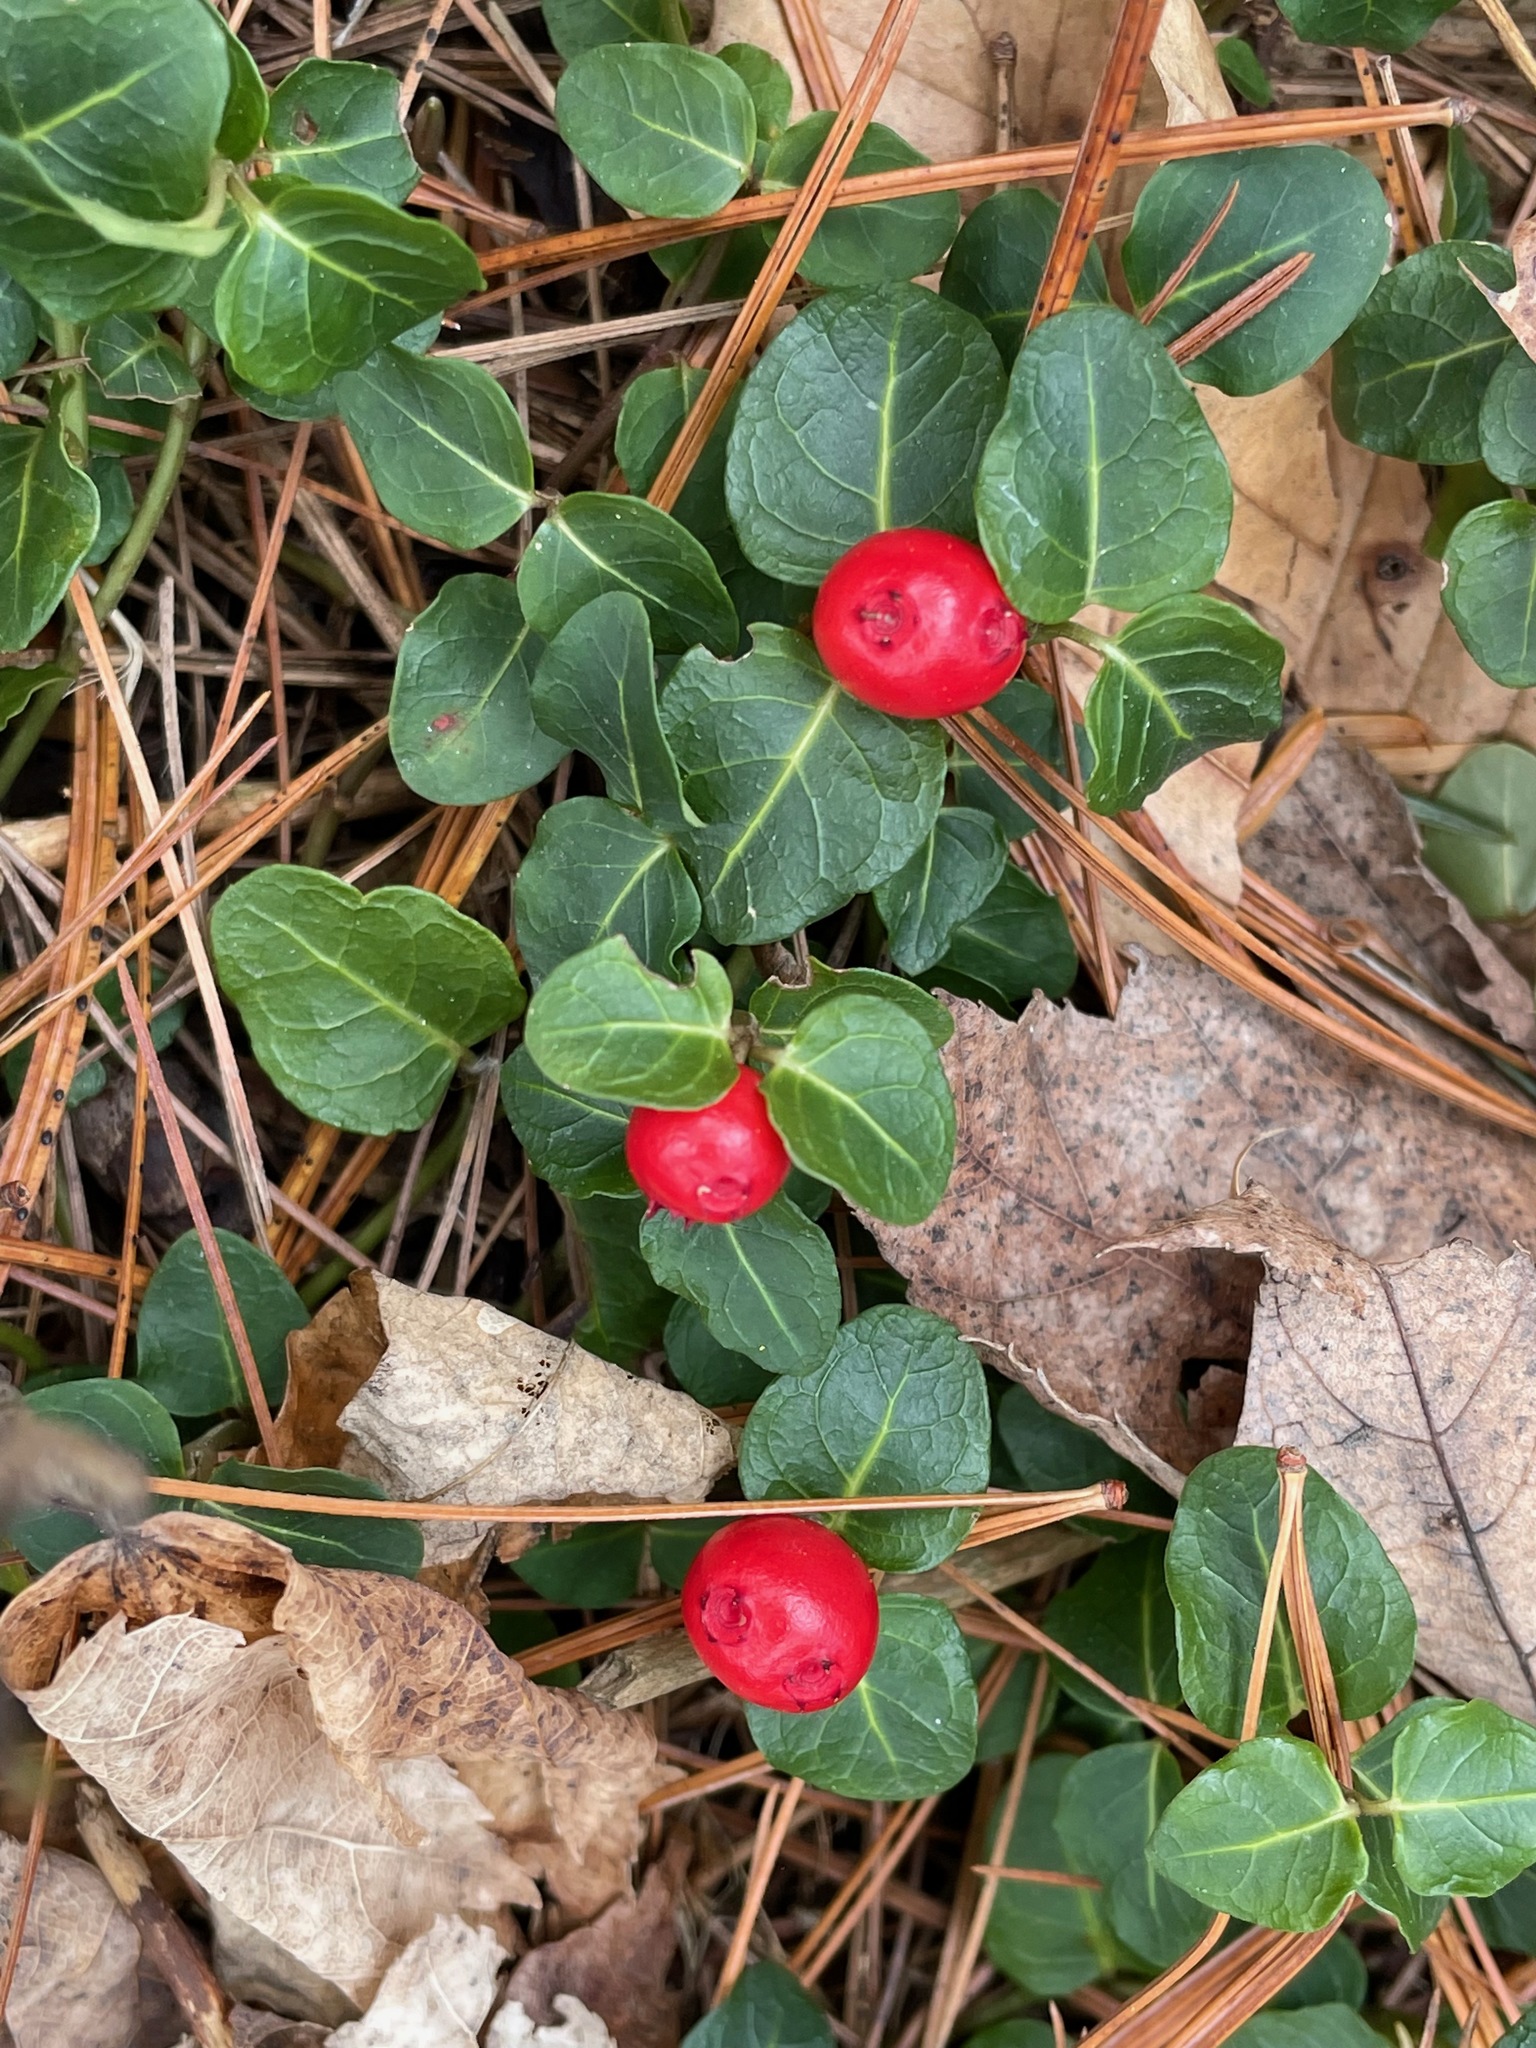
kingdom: Plantae
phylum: Tracheophyta
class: Magnoliopsida
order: Gentianales
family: Rubiaceae
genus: Mitchella
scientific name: Mitchella repens
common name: Partridge-berry
